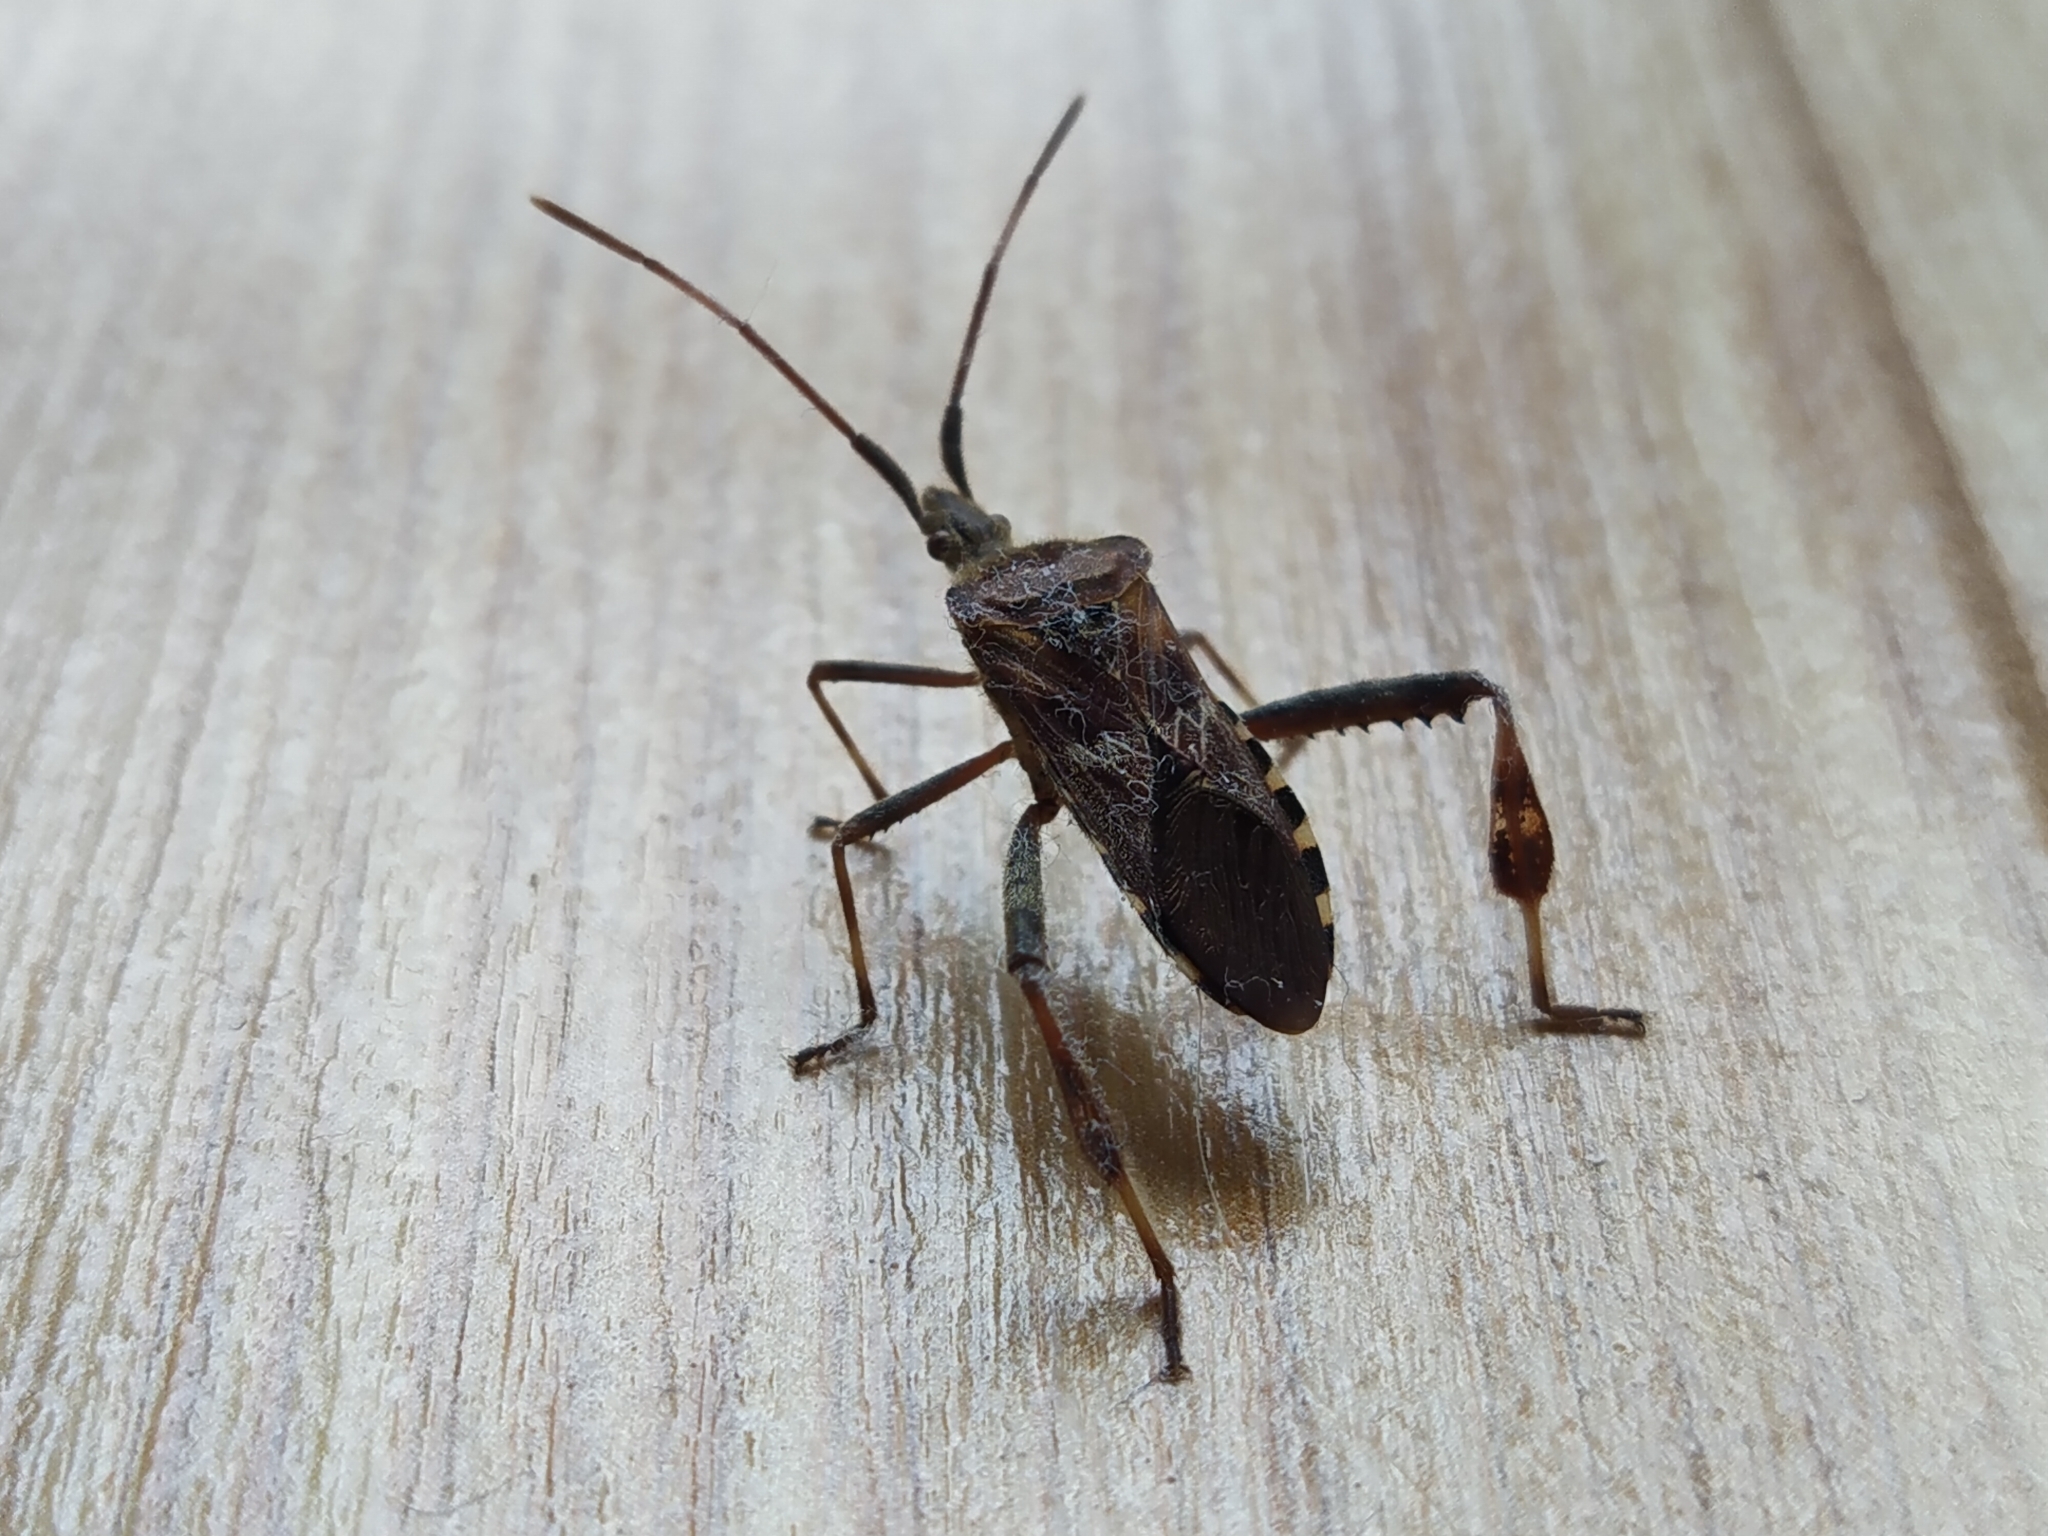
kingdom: Animalia
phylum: Arthropoda
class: Insecta
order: Hemiptera
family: Coreidae
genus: Leptoglossus
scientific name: Leptoglossus occidentalis
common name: Western conifer-seed bug
